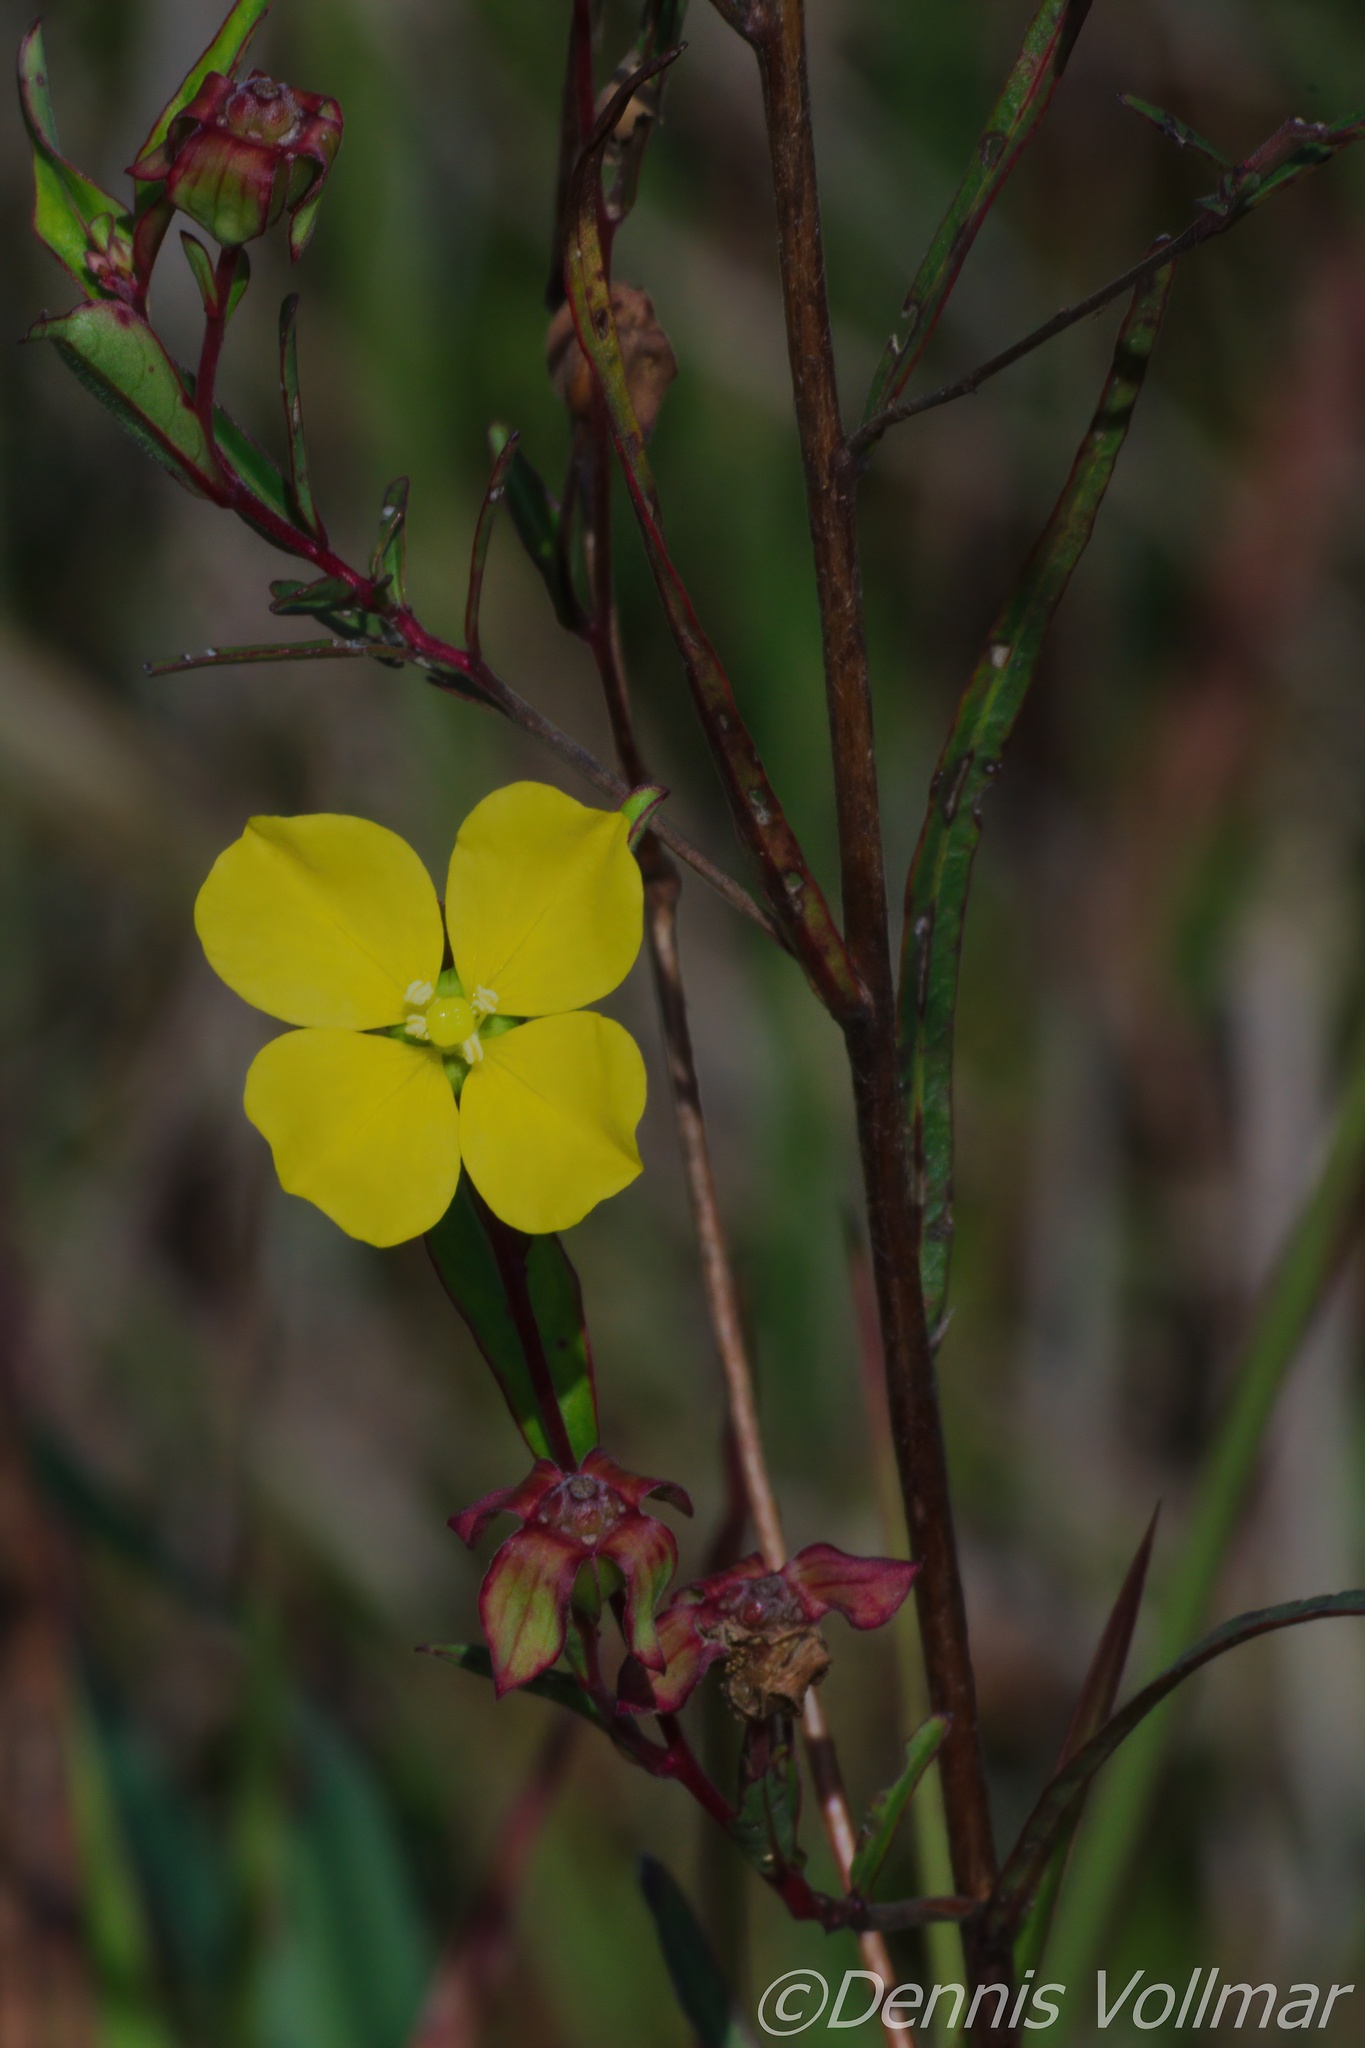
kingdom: Plantae
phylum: Tracheophyta
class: Magnoliopsida
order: Myrtales
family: Onagraceae
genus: Ludwigia
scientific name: Ludwigia maritima
